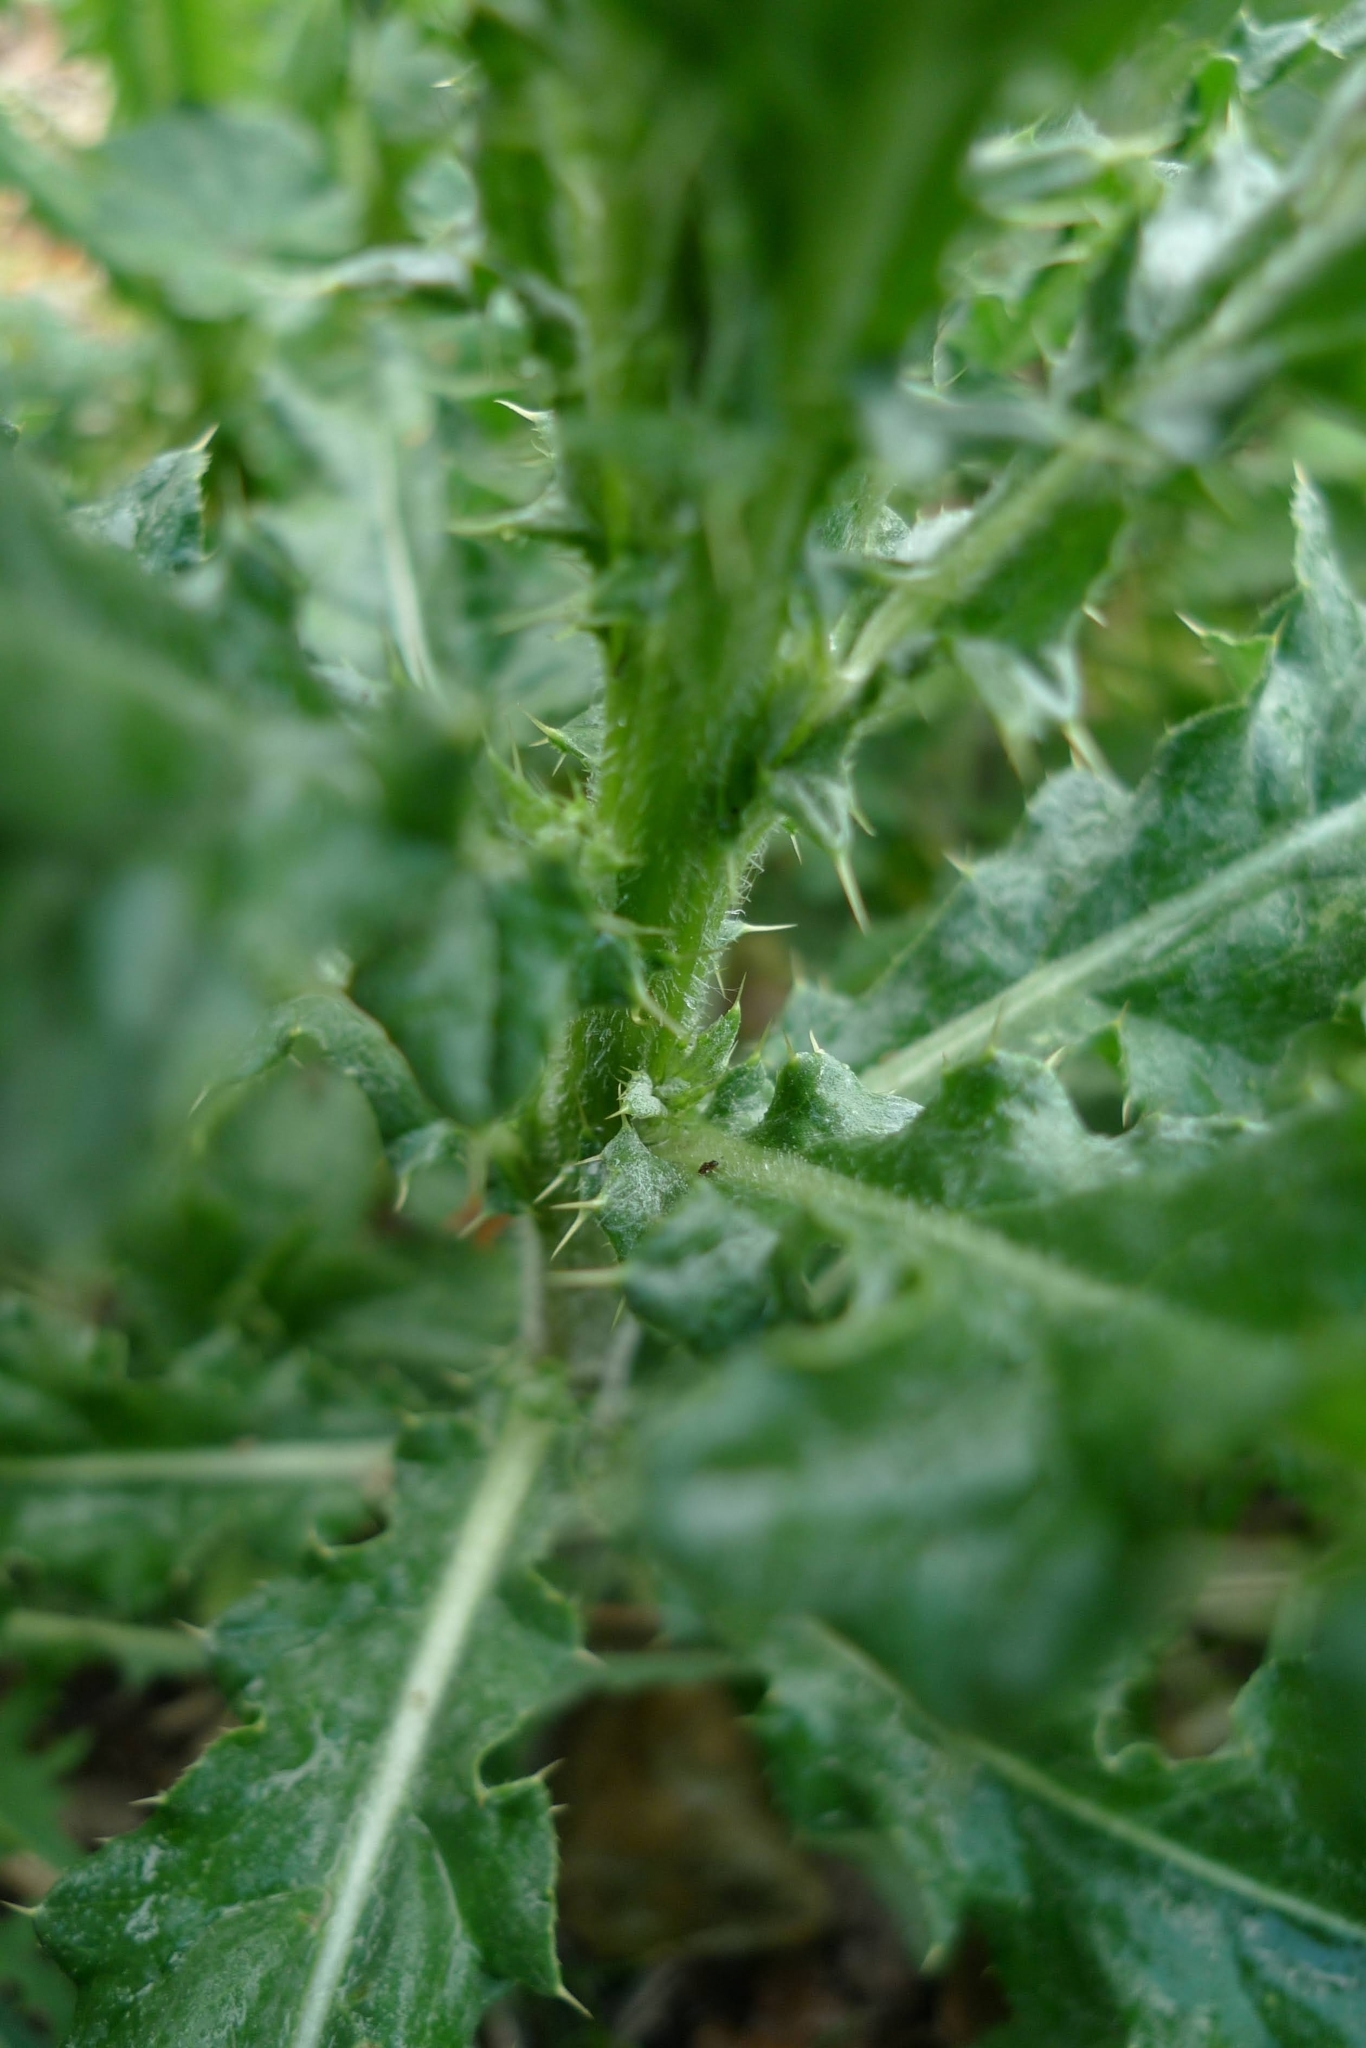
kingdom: Plantae
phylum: Tracheophyta
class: Magnoliopsida
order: Asterales
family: Asteraceae
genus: Cirsium
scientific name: Cirsium arvense
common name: Creeping thistle
